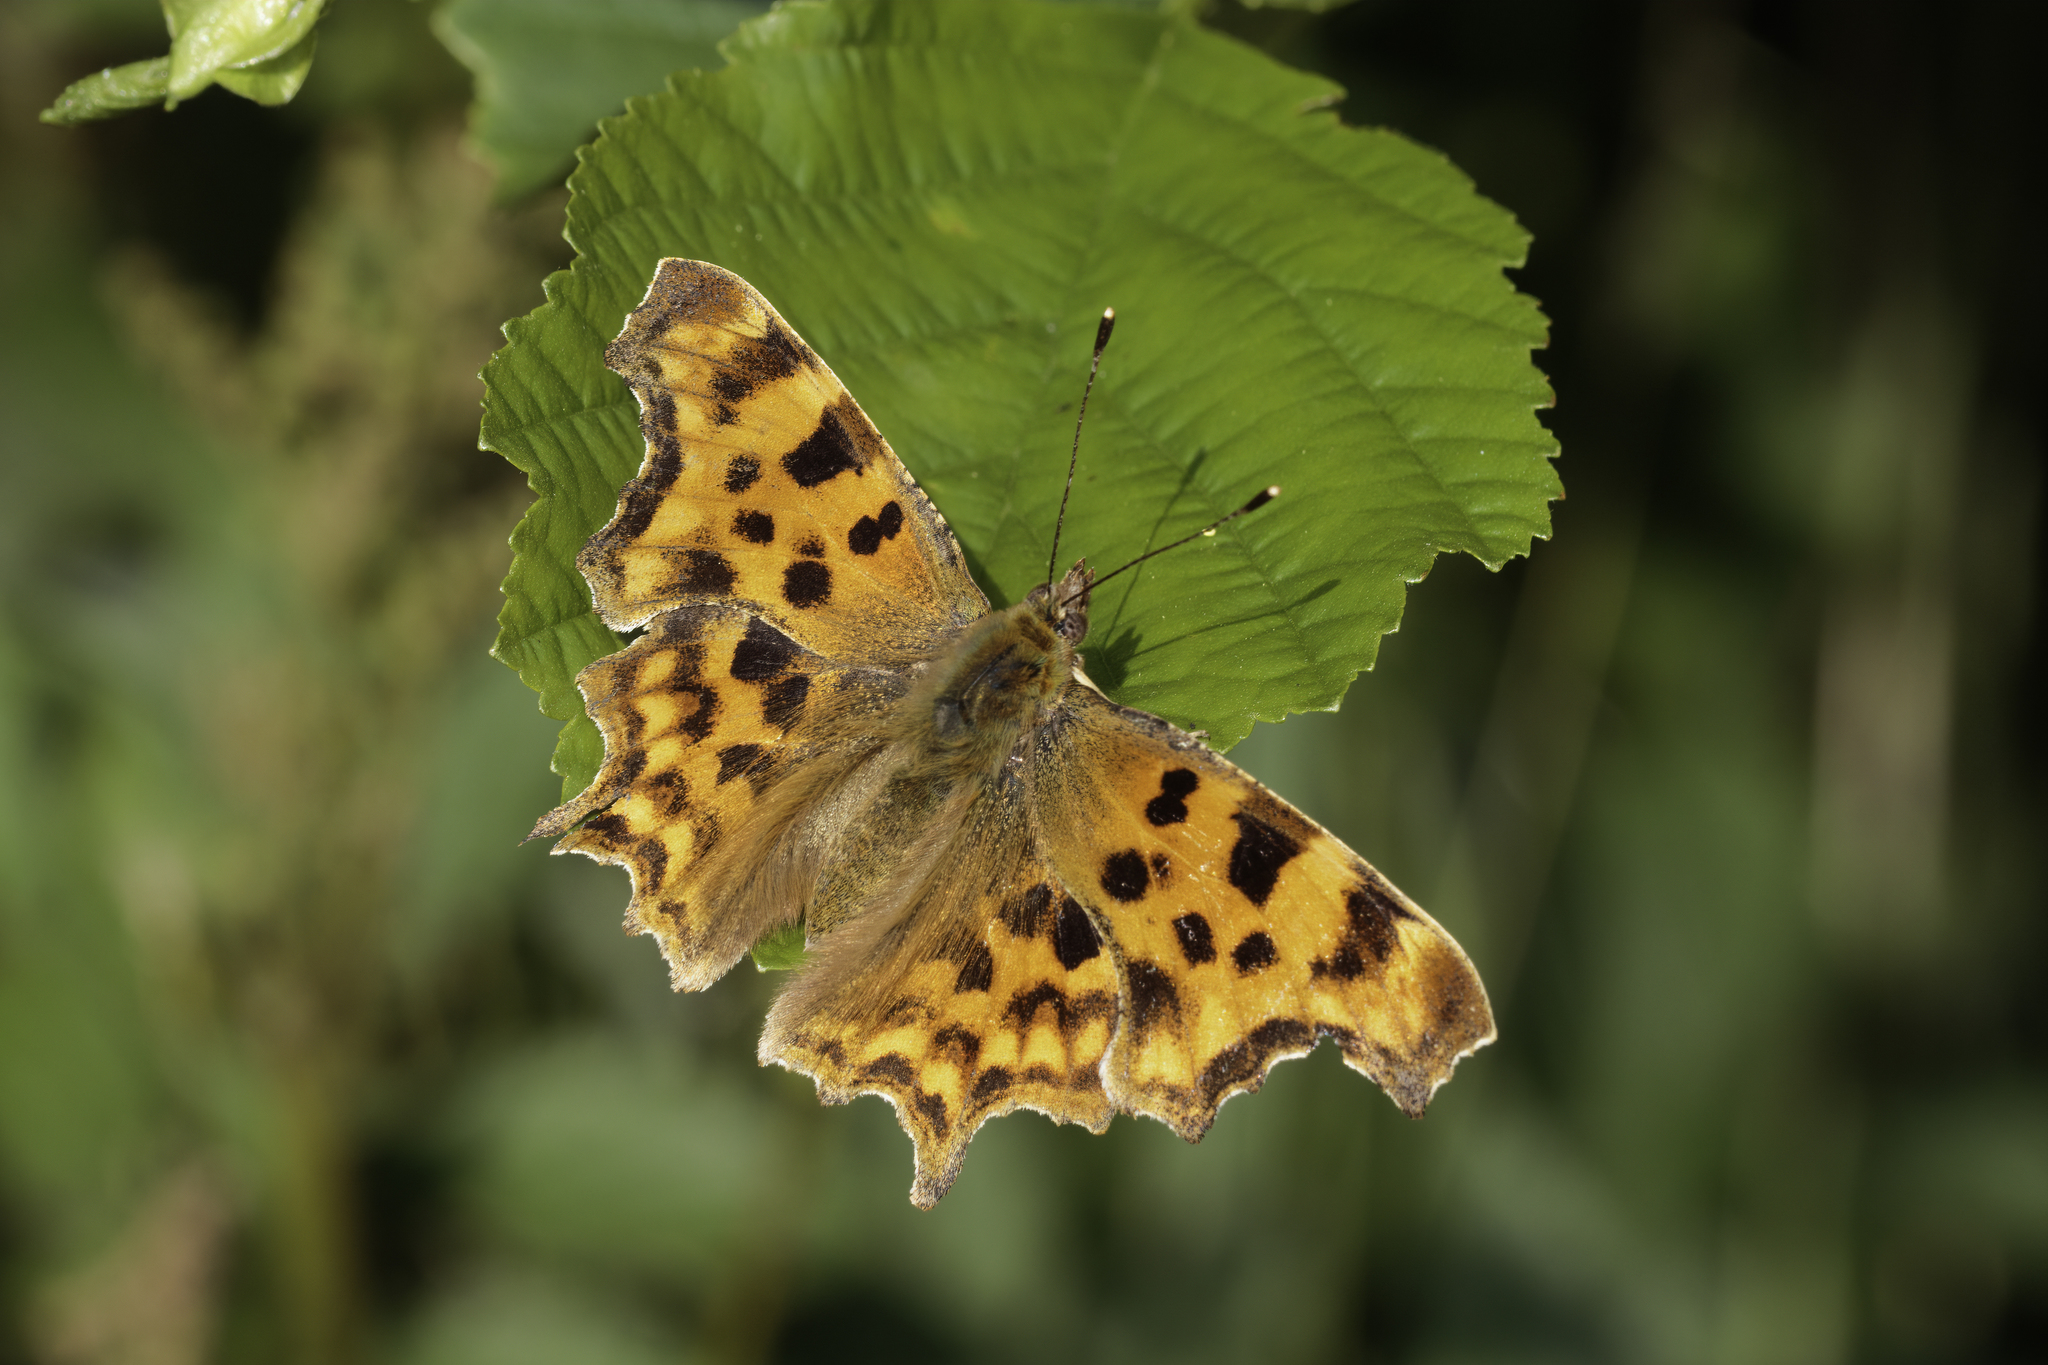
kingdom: Animalia
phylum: Arthropoda
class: Insecta
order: Lepidoptera
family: Nymphalidae
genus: Polygonia
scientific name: Polygonia c-album
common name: Comma
